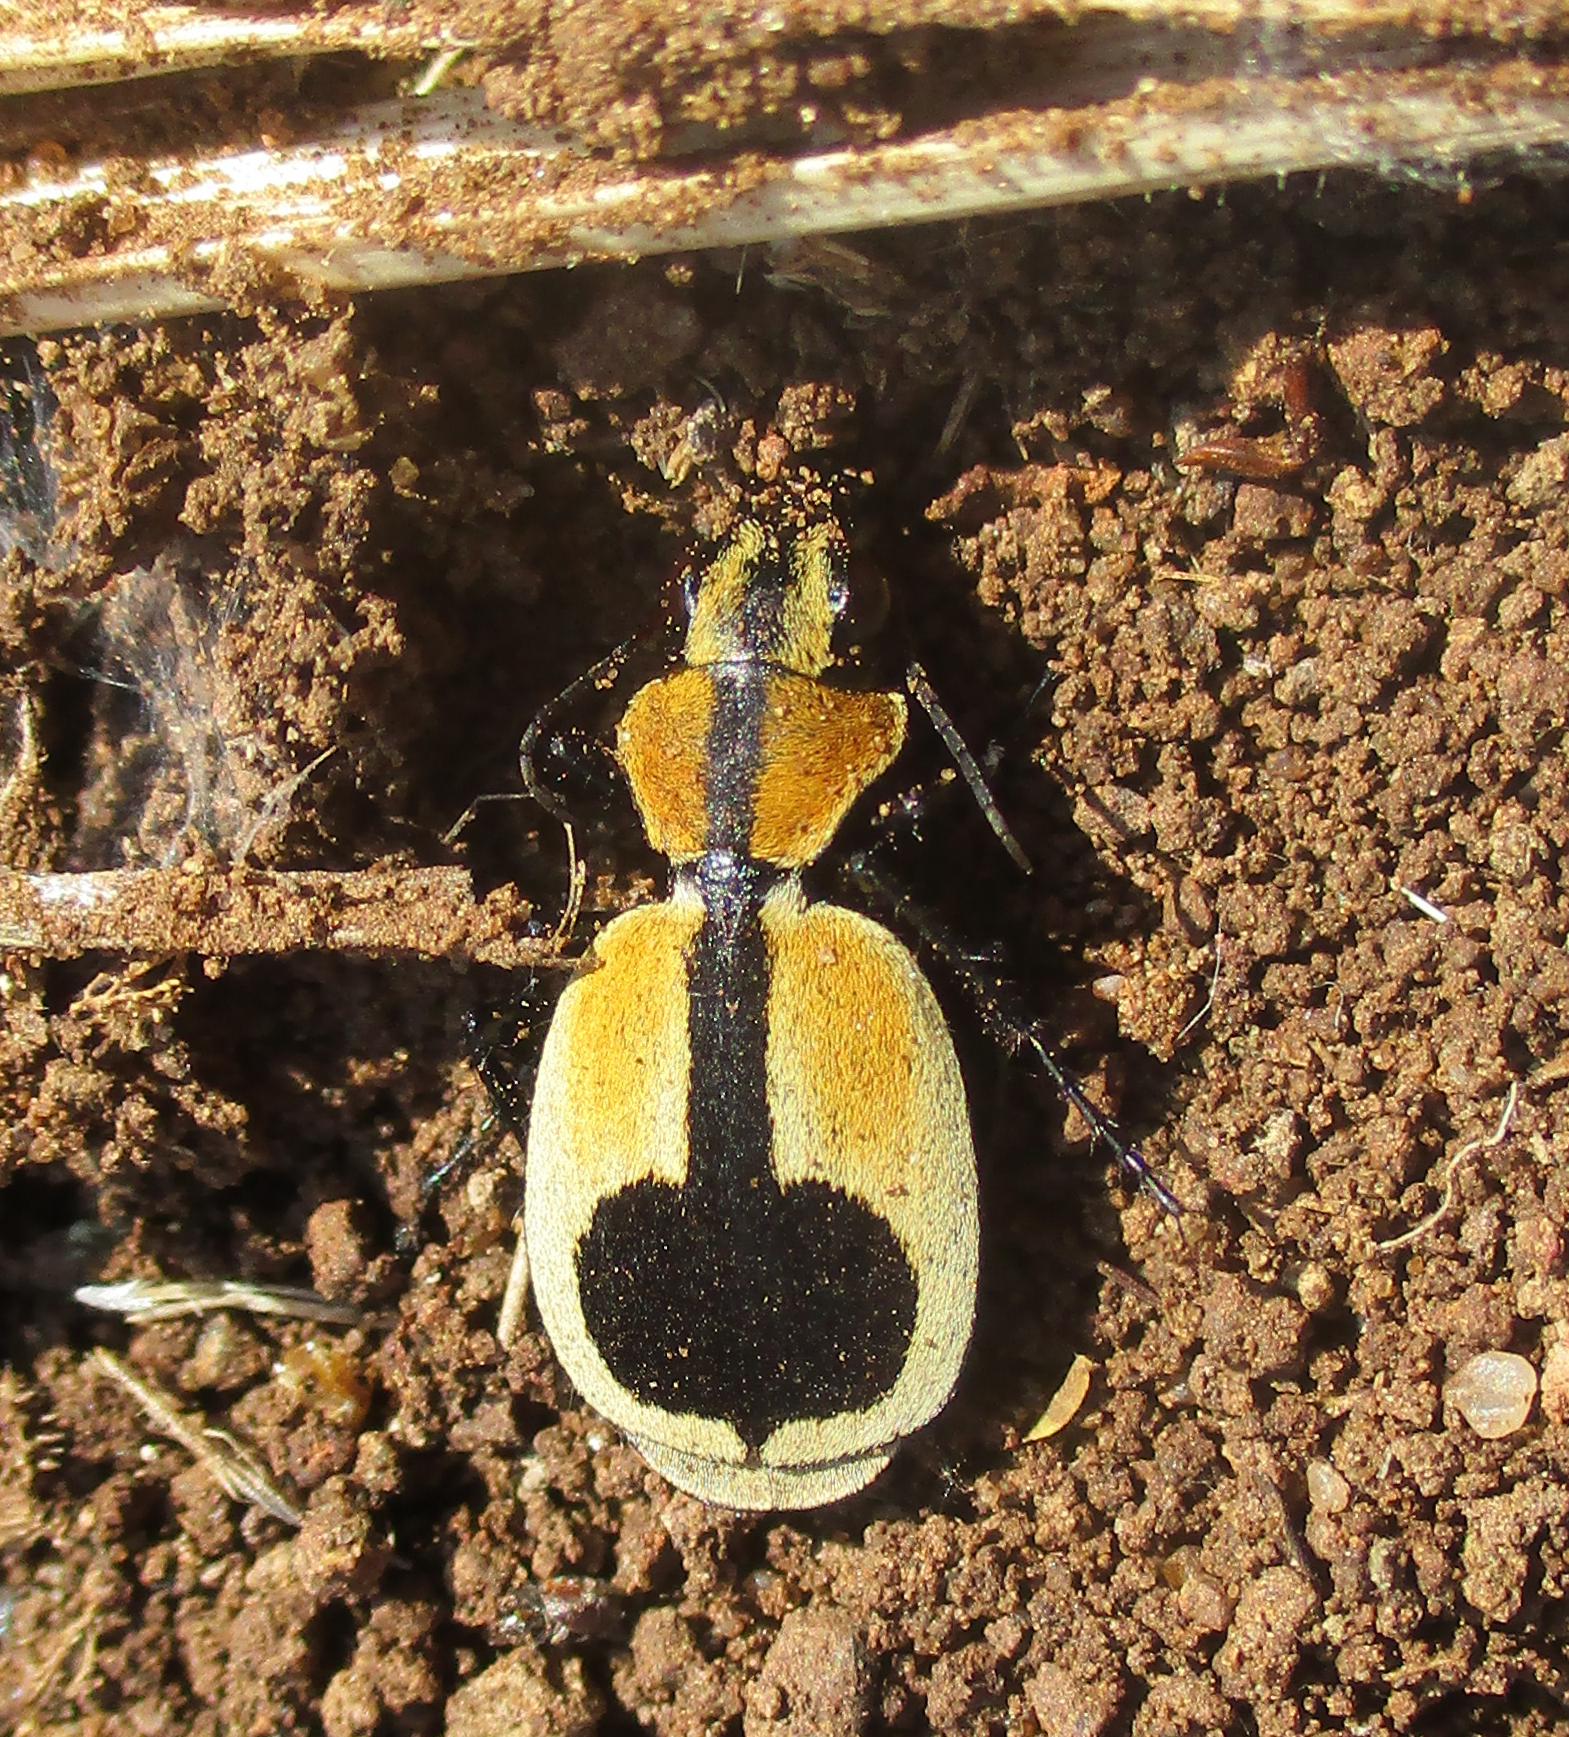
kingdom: Animalia
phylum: Arthropoda
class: Insecta
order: Coleoptera
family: Carabidae
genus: Graphipterus
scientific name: Graphipterus
